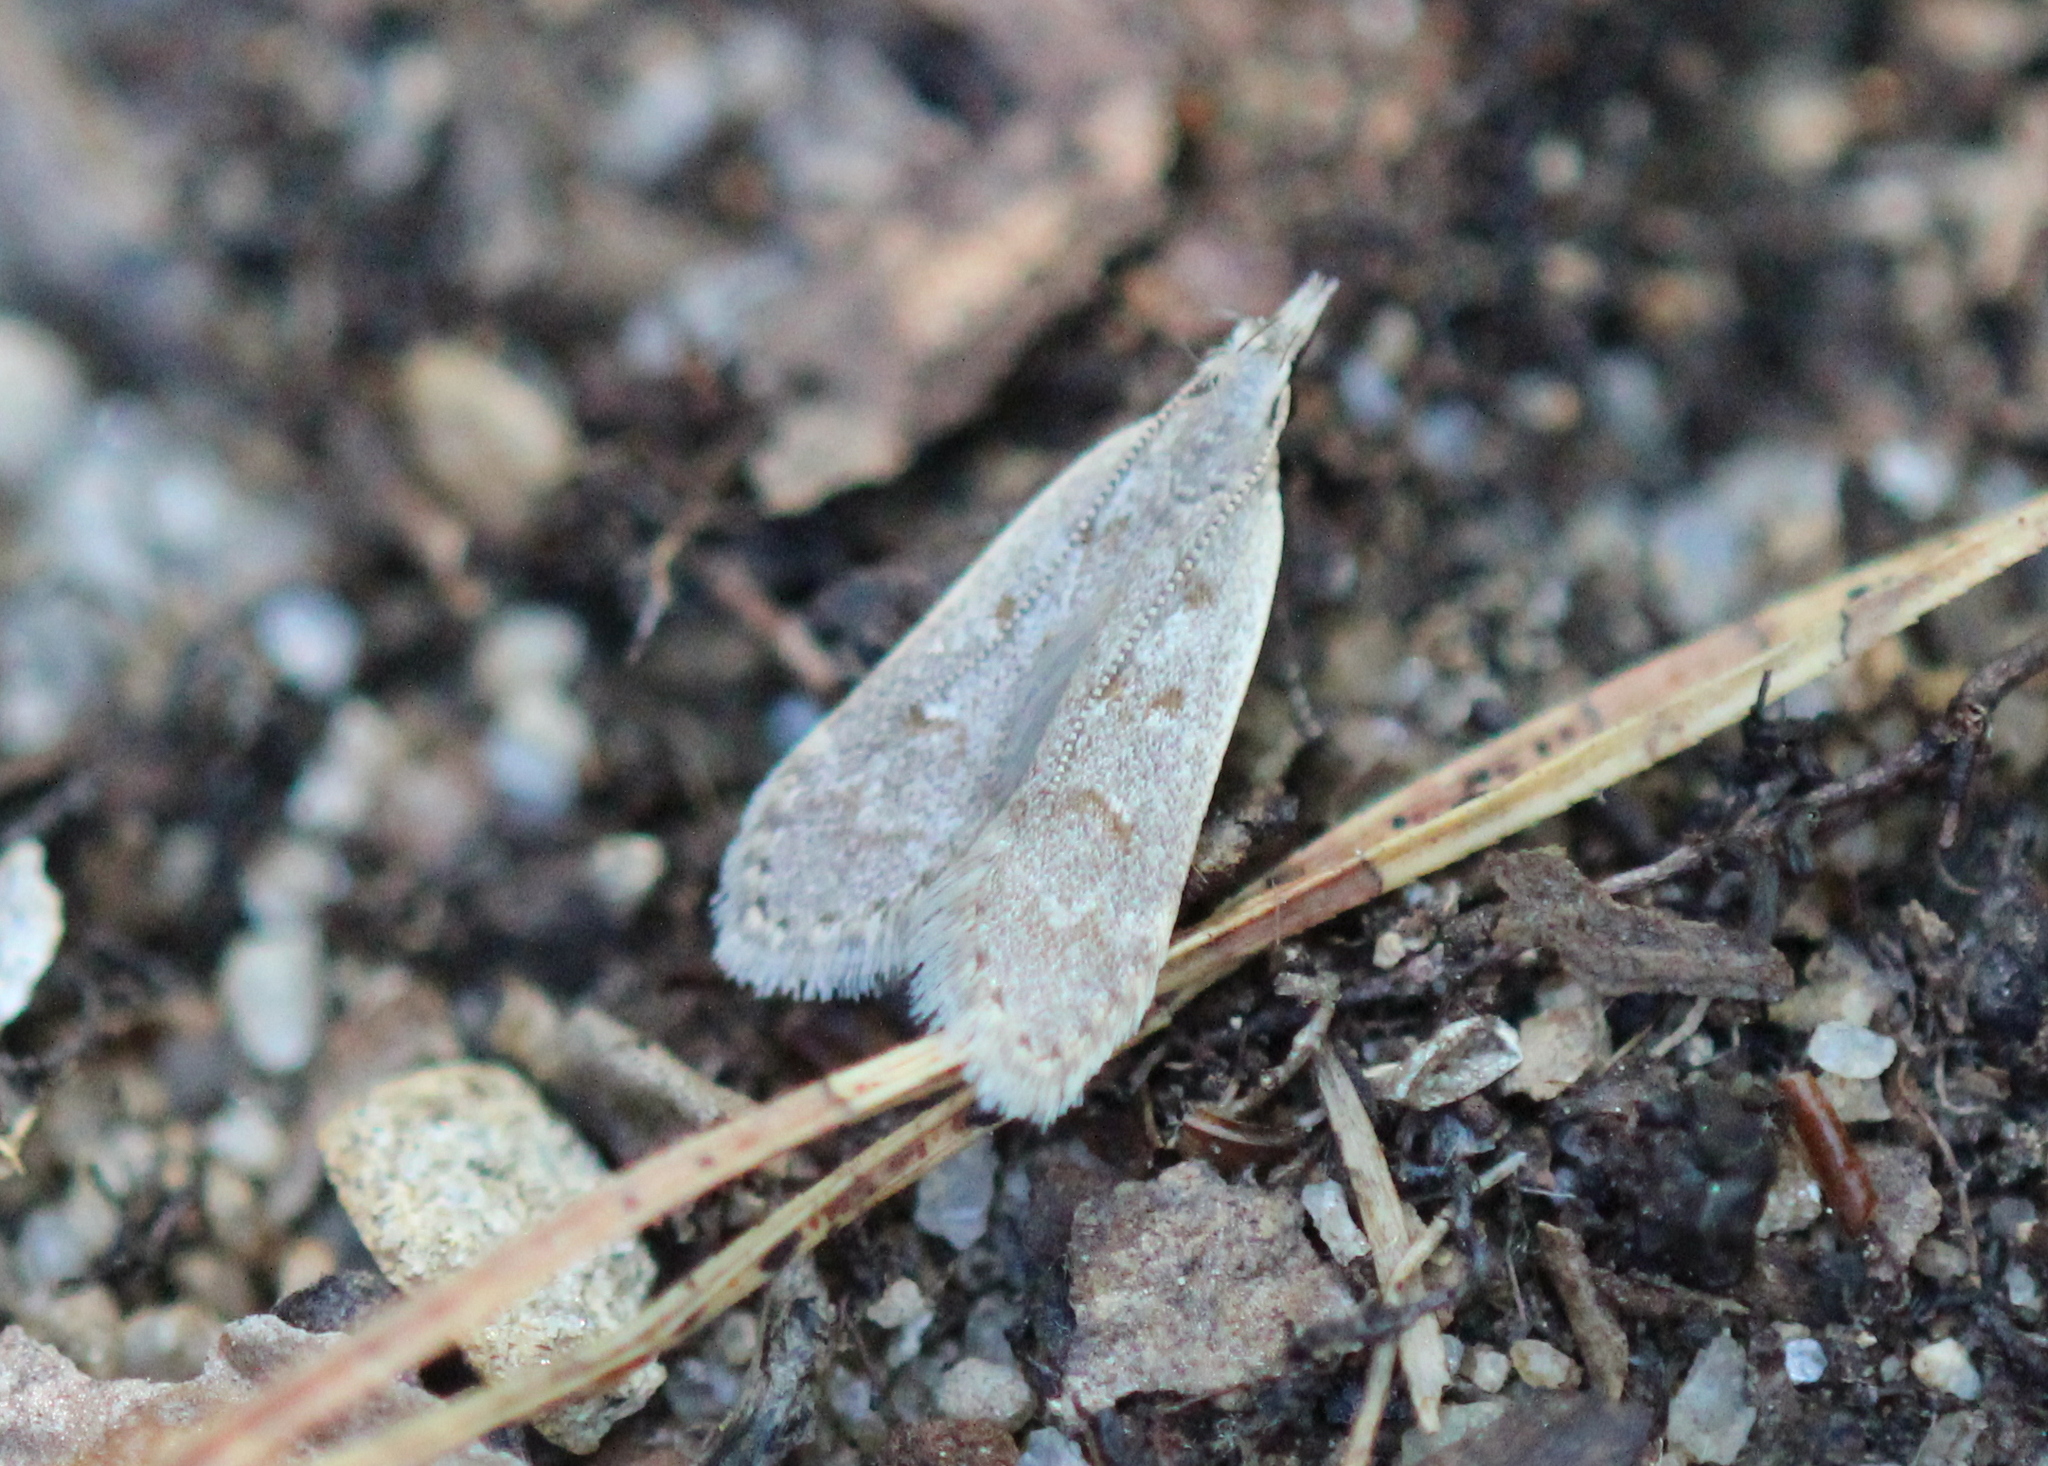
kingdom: Animalia
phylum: Arthropoda
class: Insecta
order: Lepidoptera
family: Gelechiidae
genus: Dichomeris
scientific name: Dichomeris punctidiscellus
